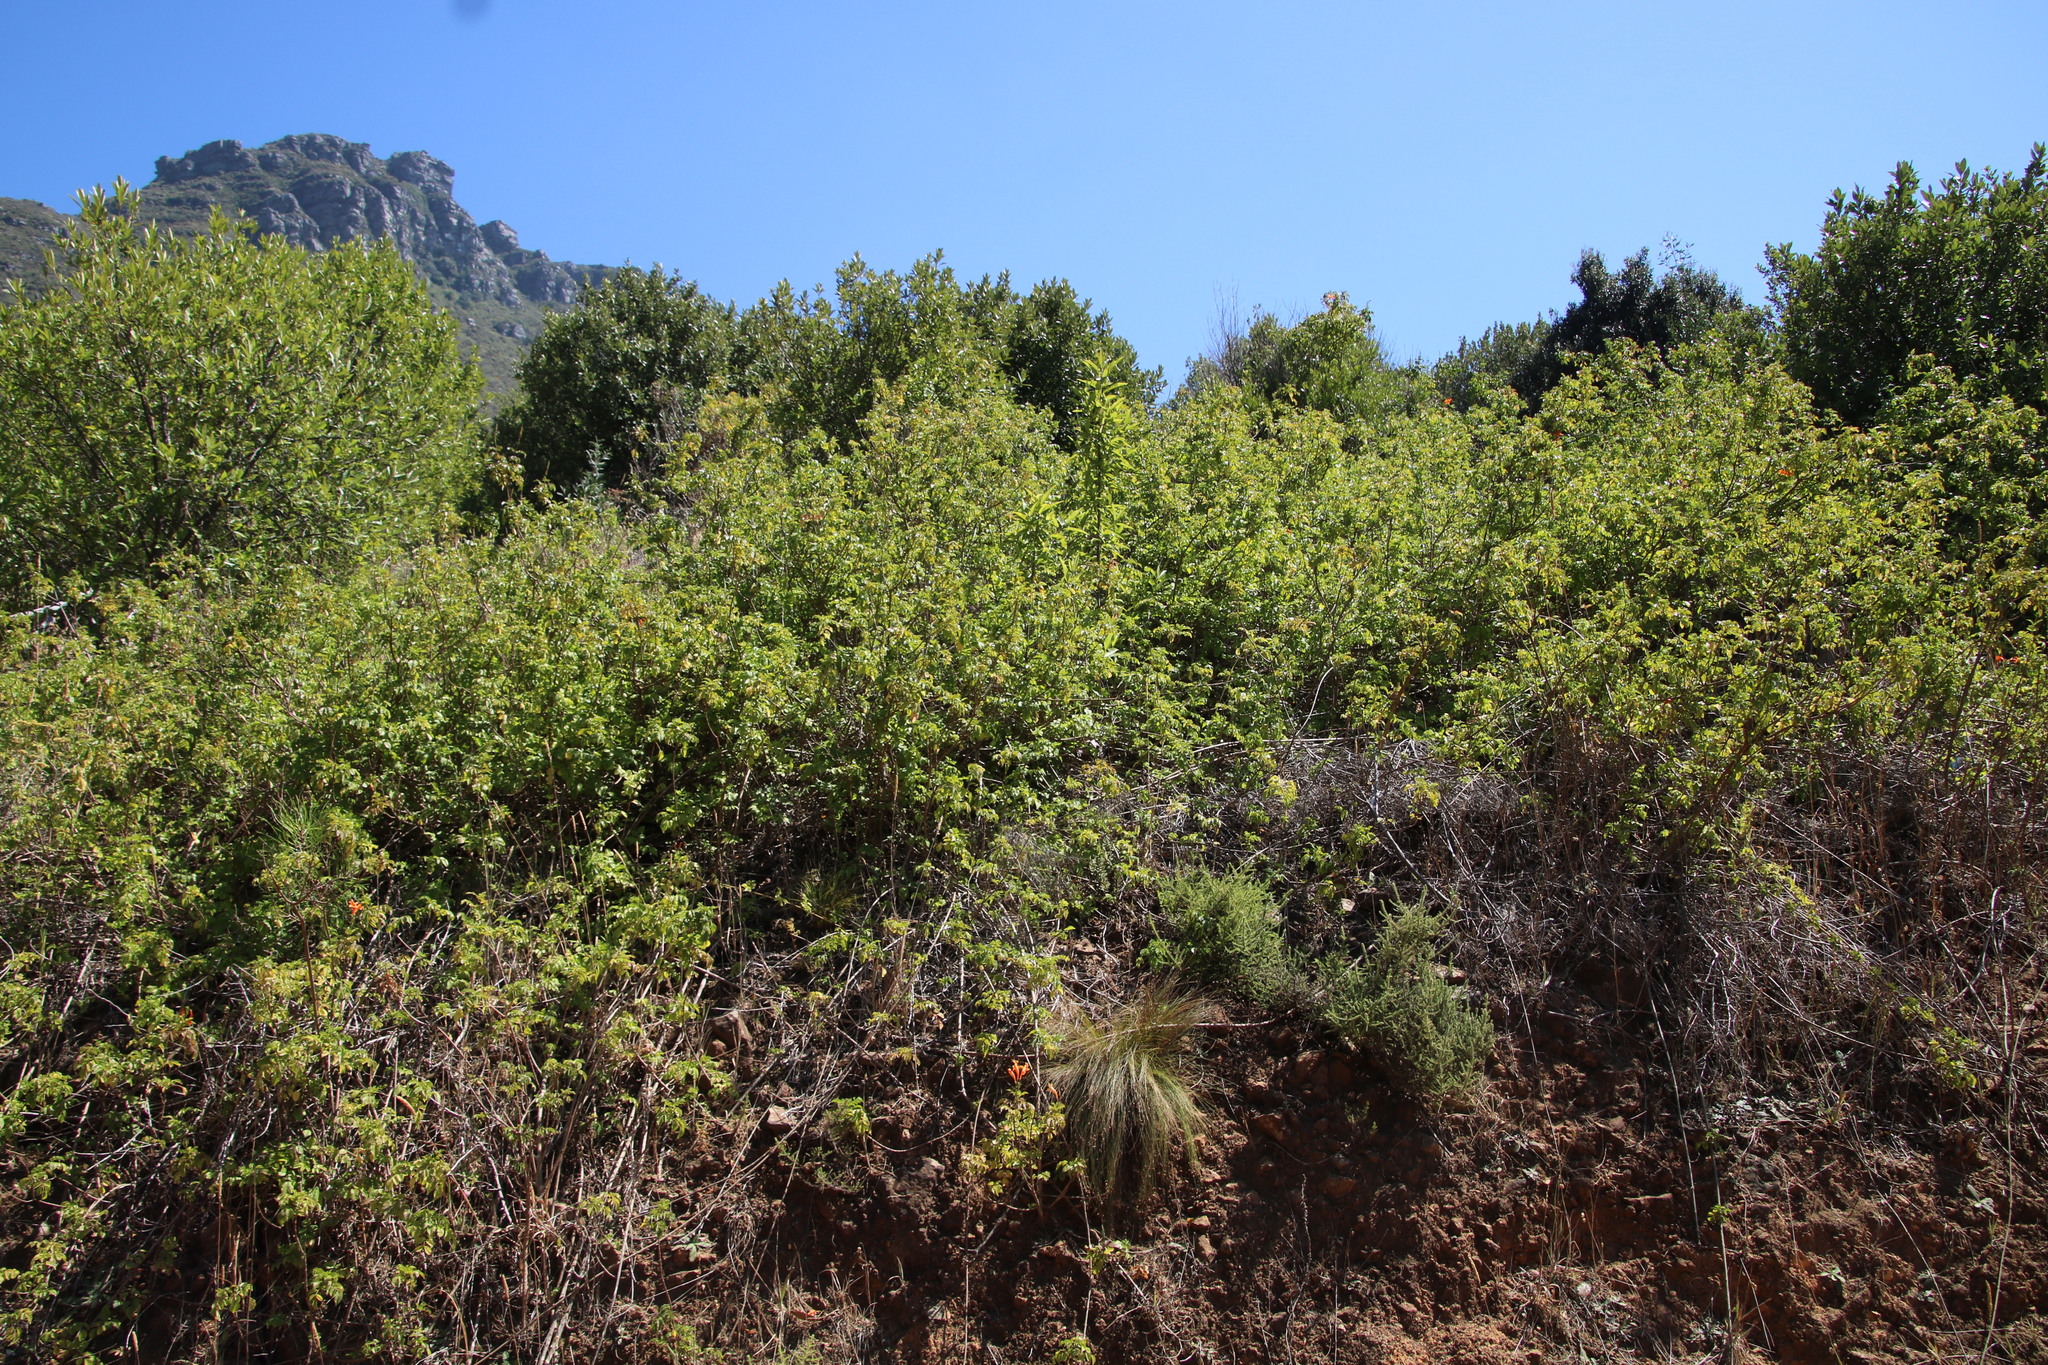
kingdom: Plantae
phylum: Tracheophyta
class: Magnoliopsida
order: Lamiales
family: Bignoniaceae
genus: Tecomaria
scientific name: Tecomaria capensis
